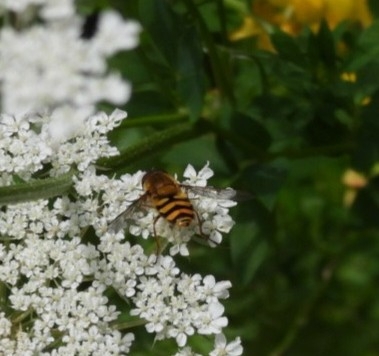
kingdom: Animalia
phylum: Arthropoda
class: Insecta
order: Diptera
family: Syrphidae
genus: Syrphus
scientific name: Syrphus
